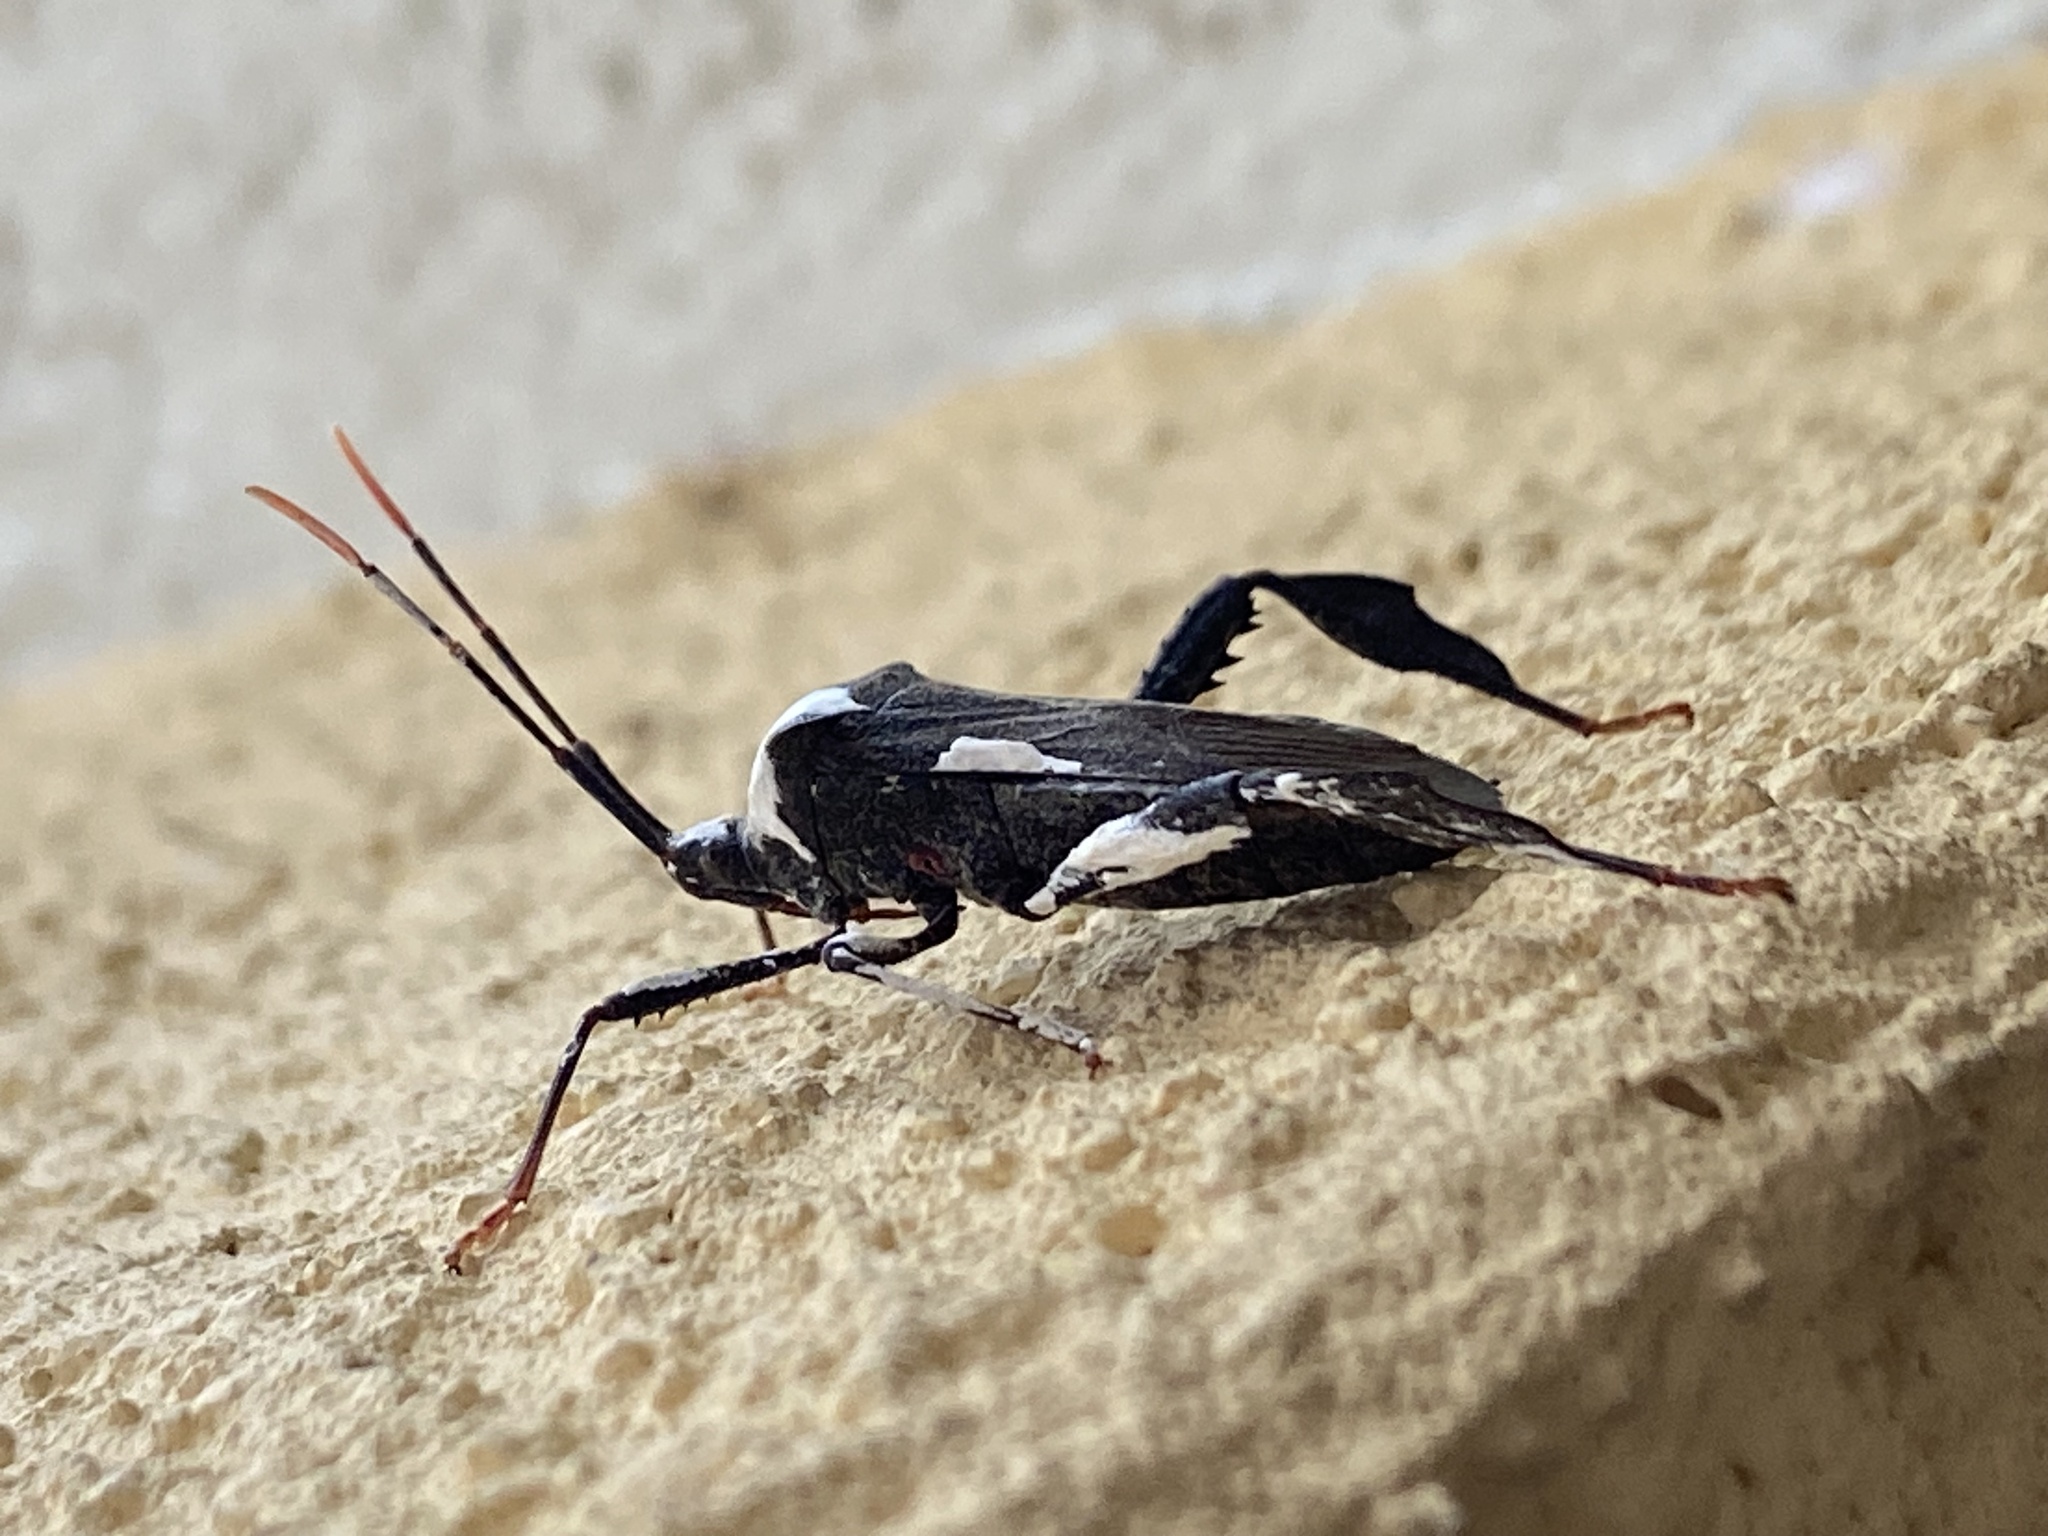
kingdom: Animalia
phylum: Arthropoda
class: Insecta
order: Hemiptera
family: Coreidae
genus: Acanthocephala
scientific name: Acanthocephala terminalis
